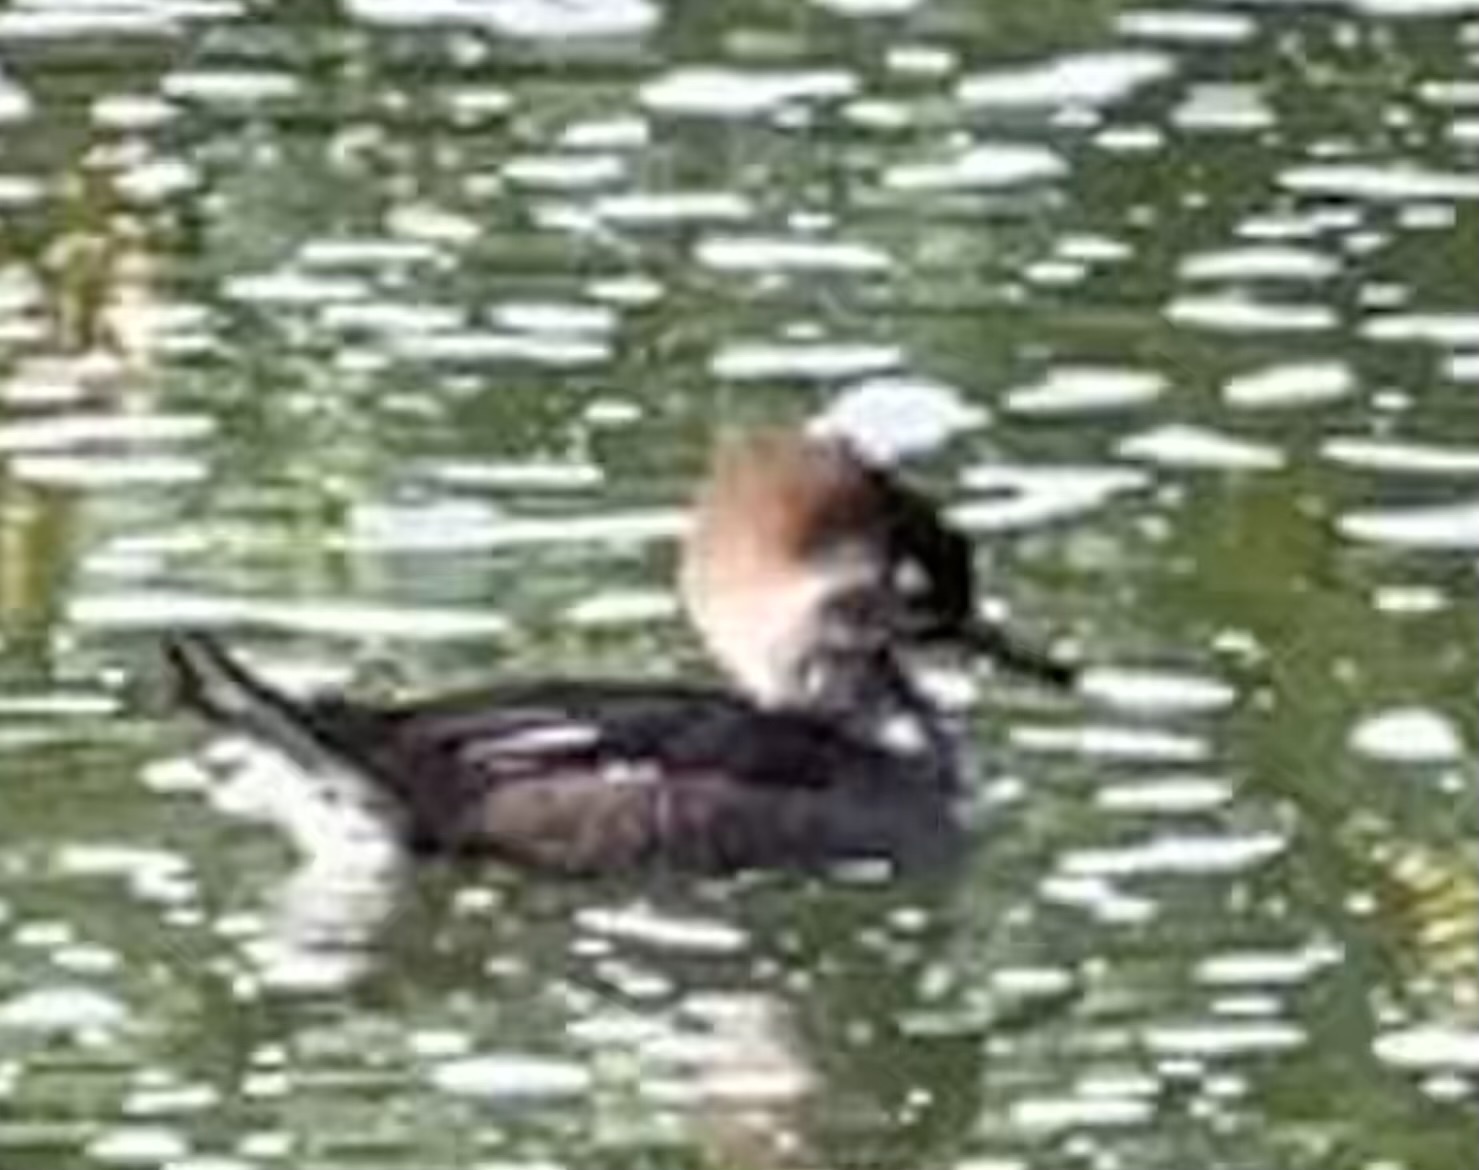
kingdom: Animalia
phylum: Chordata
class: Aves
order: Anseriformes
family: Anatidae
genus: Lophodytes
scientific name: Lophodytes cucullatus
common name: Hooded merganser
